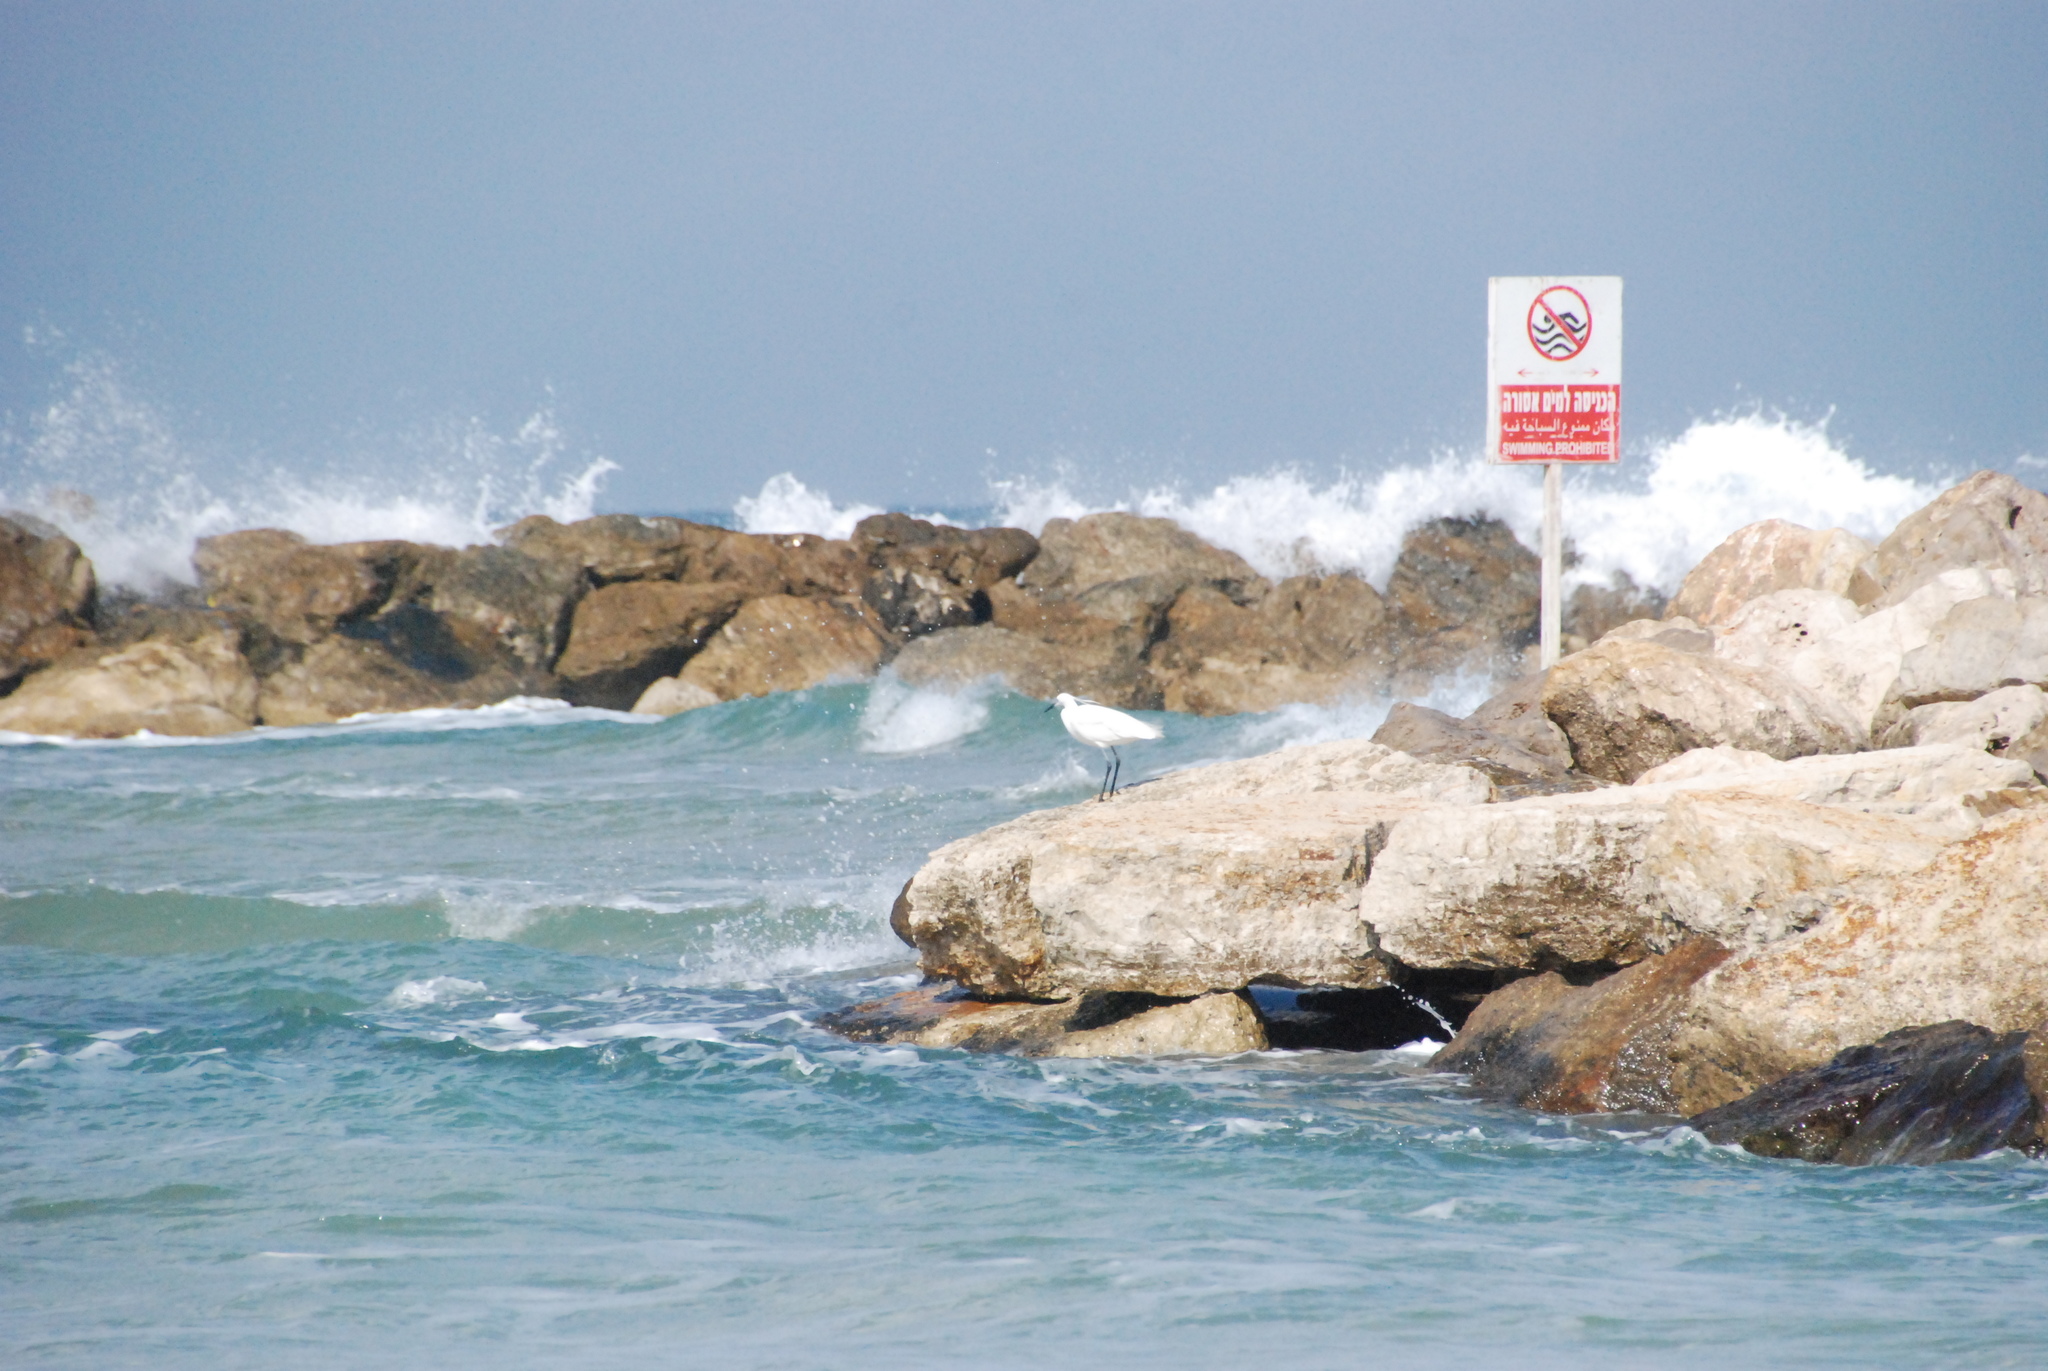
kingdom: Animalia
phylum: Chordata
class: Aves
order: Pelecaniformes
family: Ardeidae
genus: Egretta
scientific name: Egretta garzetta
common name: Little egret
